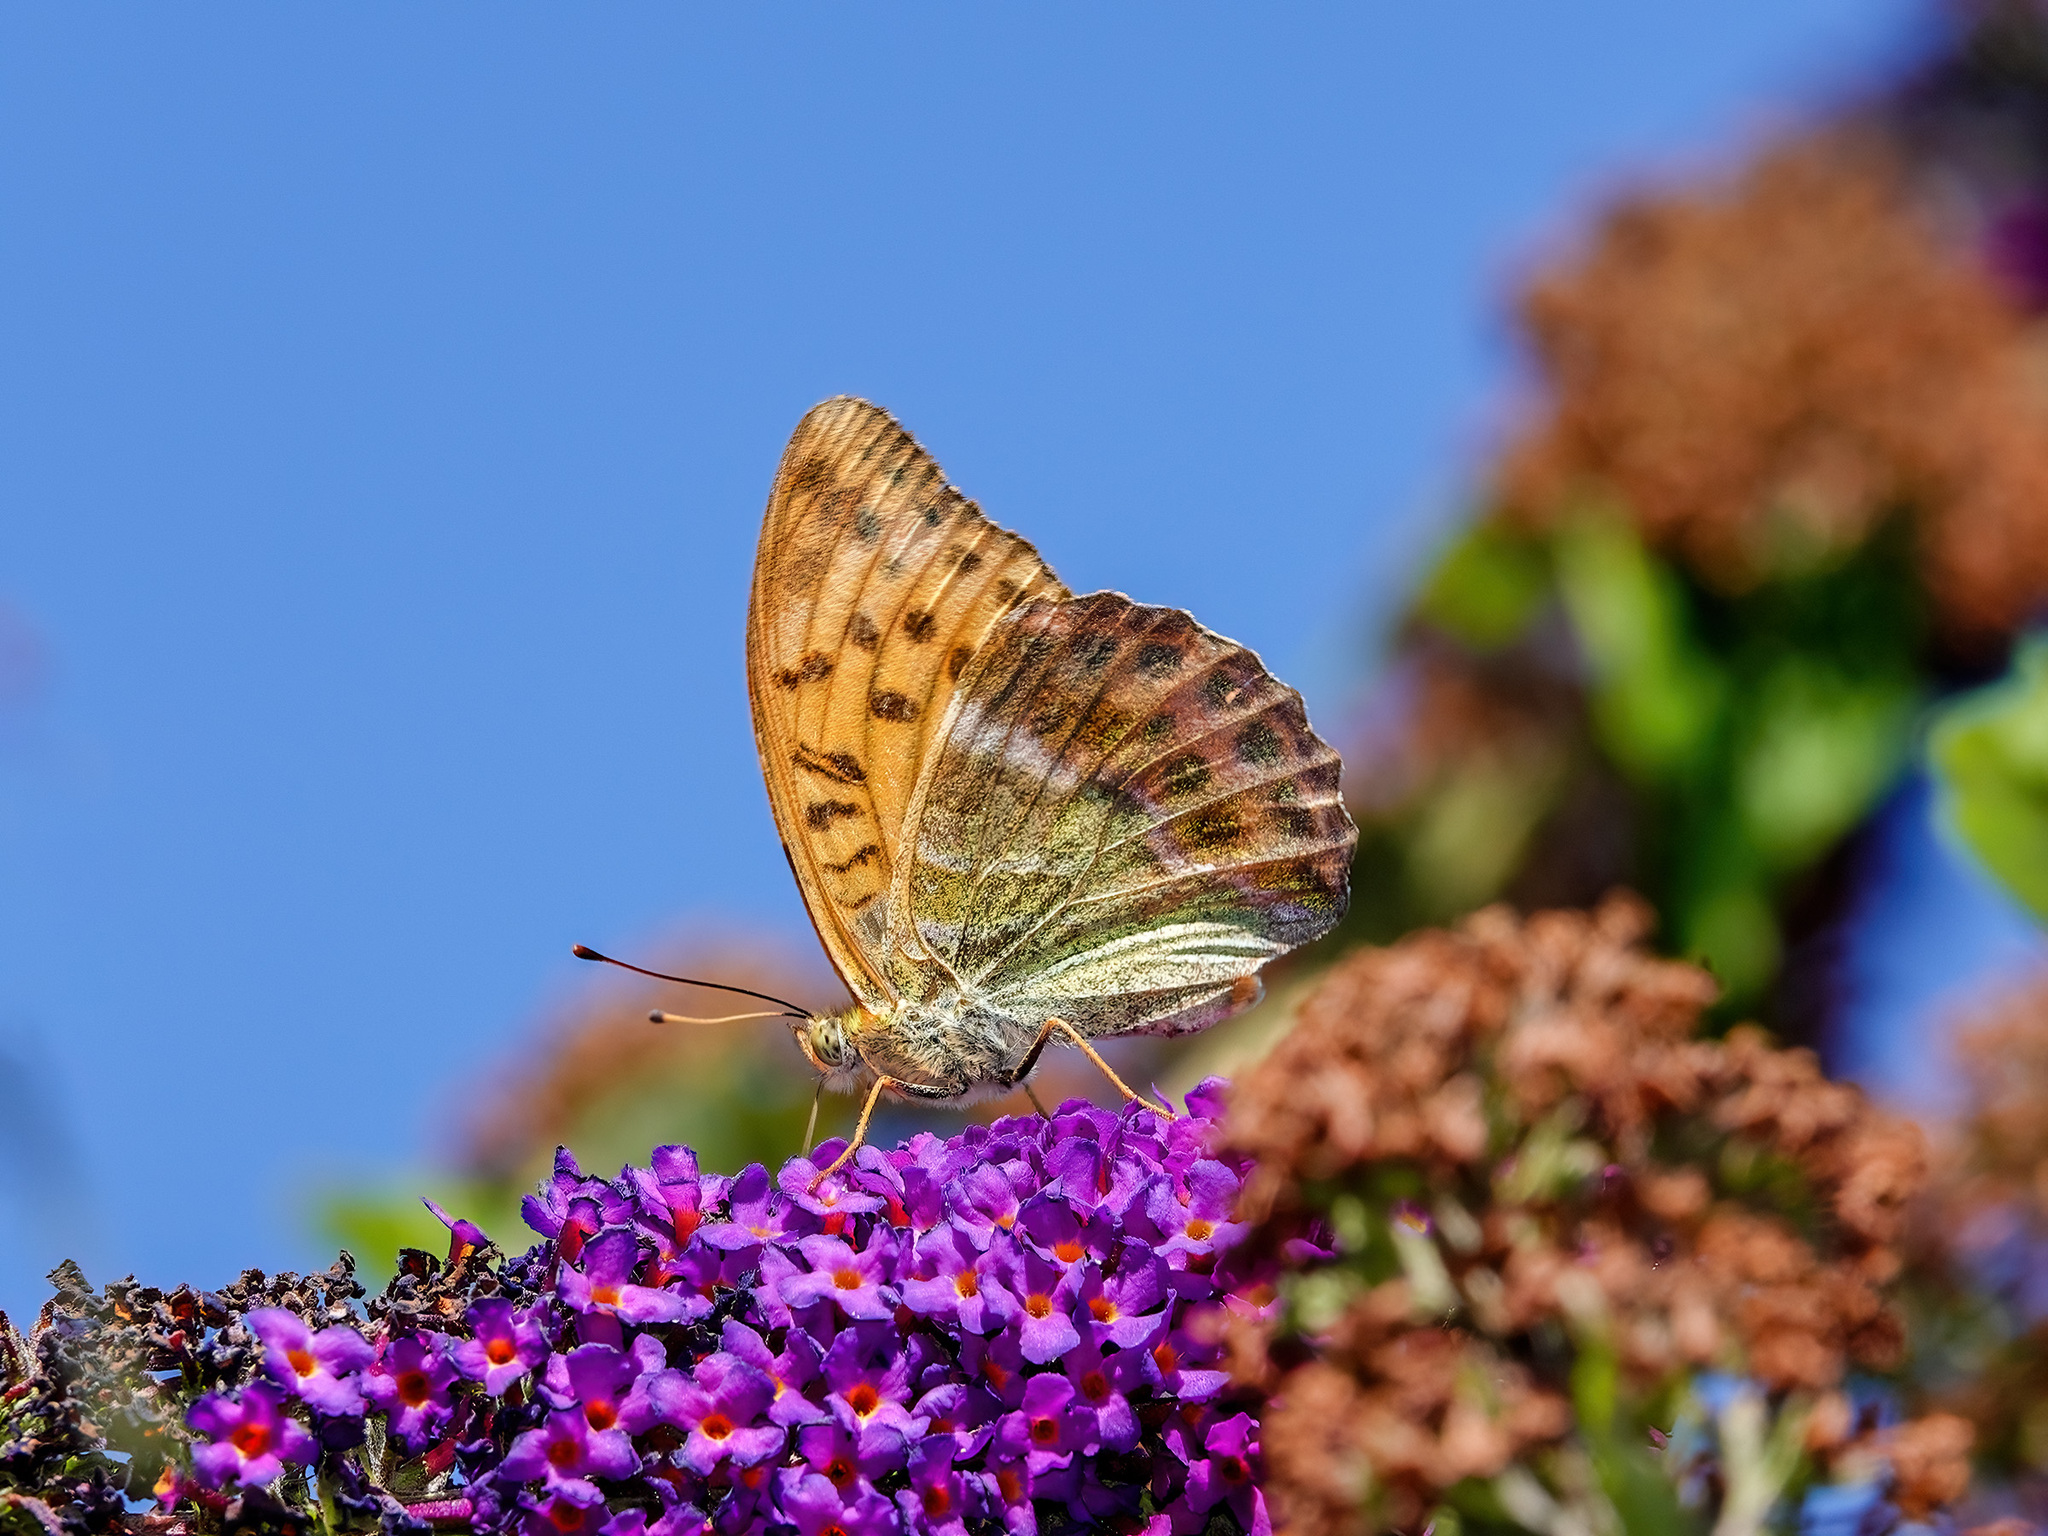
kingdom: Animalia
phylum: Arthropoda
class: Insecta
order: Lepidoptera
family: Nymphalidae
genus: Argynnis
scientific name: Argynnis paphia
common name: Silver-washed fritillary
